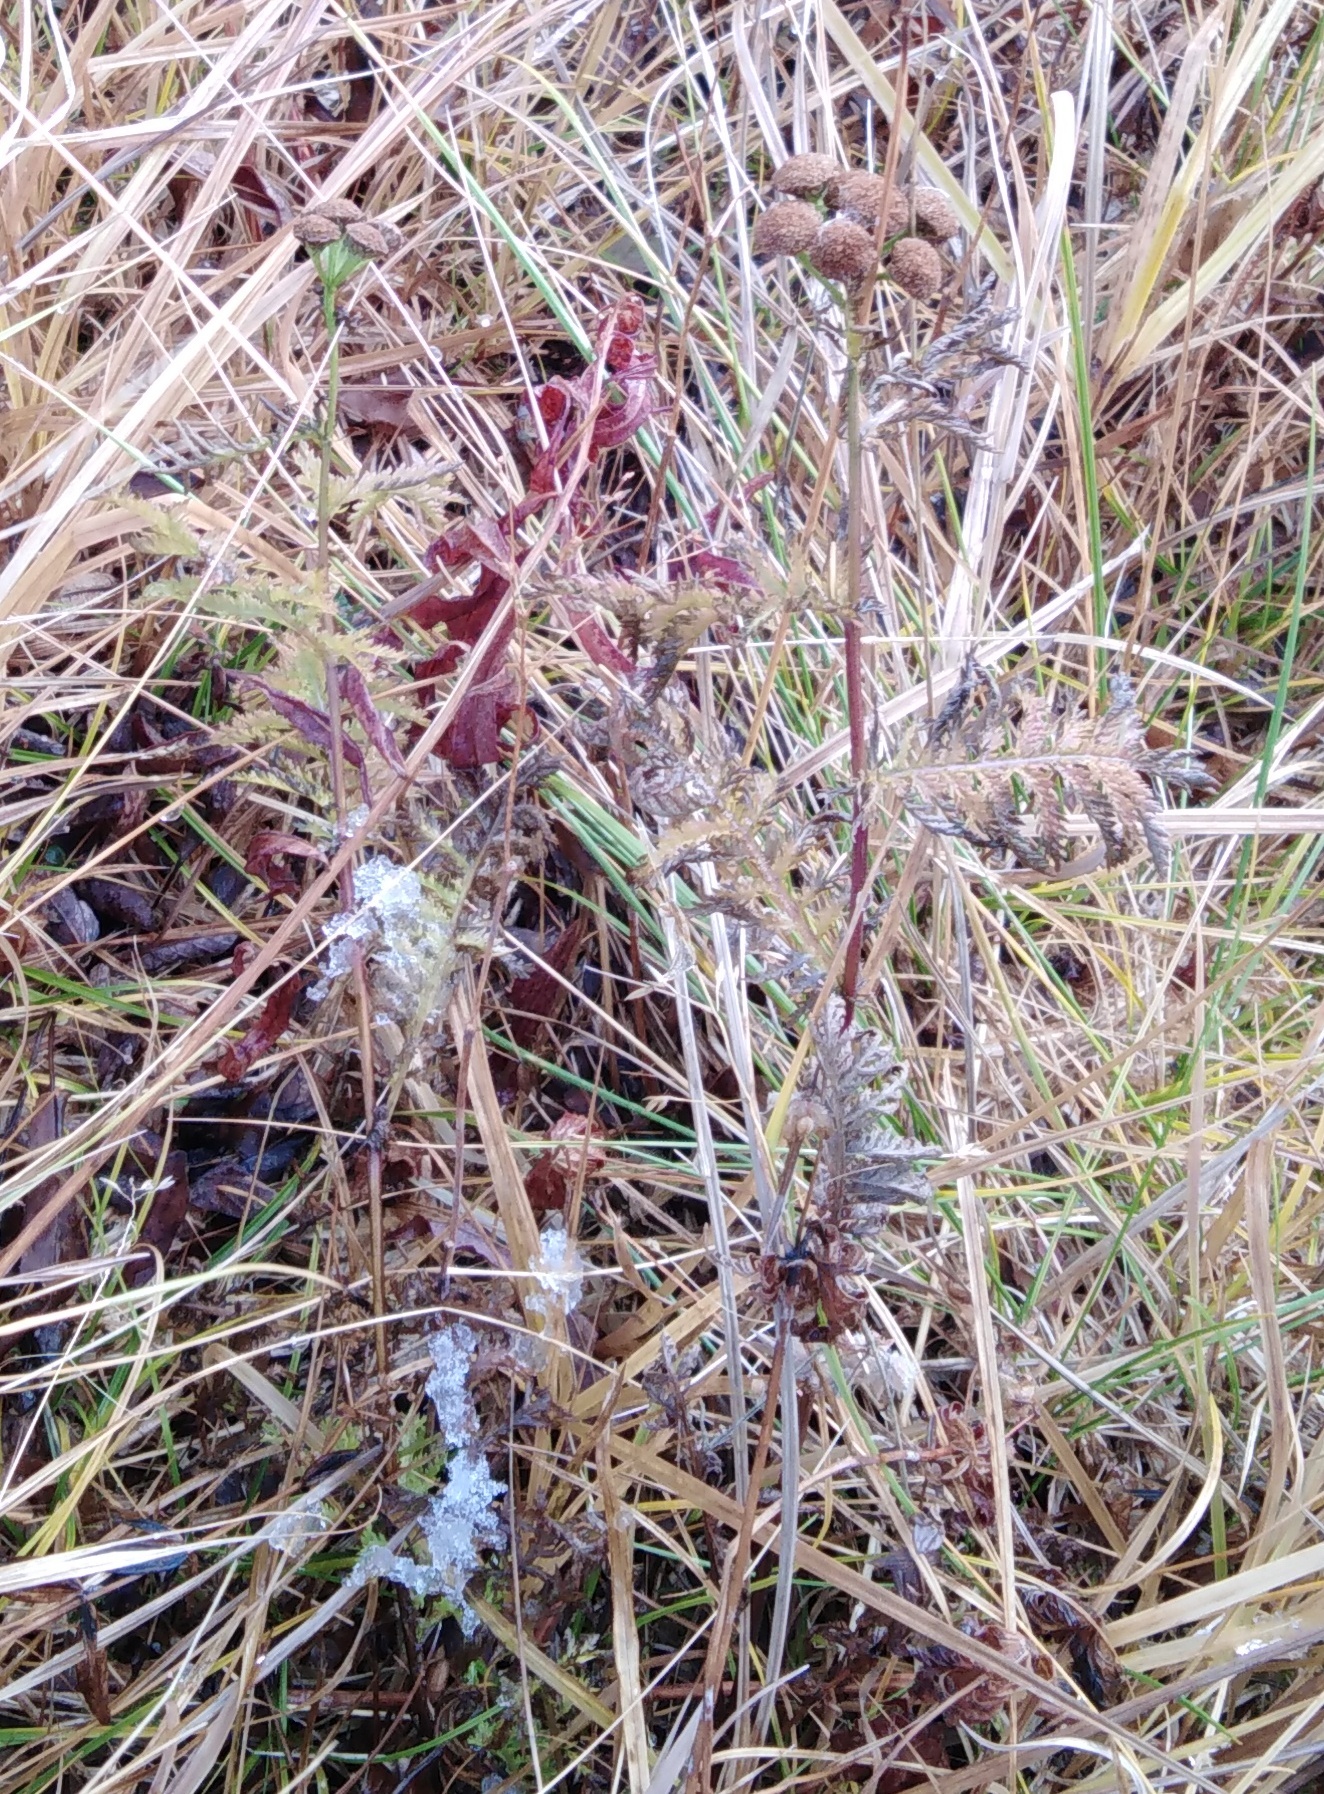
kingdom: Plantae
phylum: Tracheophyta
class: Magnoliopsida
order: Asterales
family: Asteraceae
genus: Tanacetum
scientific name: Tanacetum vulgare
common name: Common tansy
